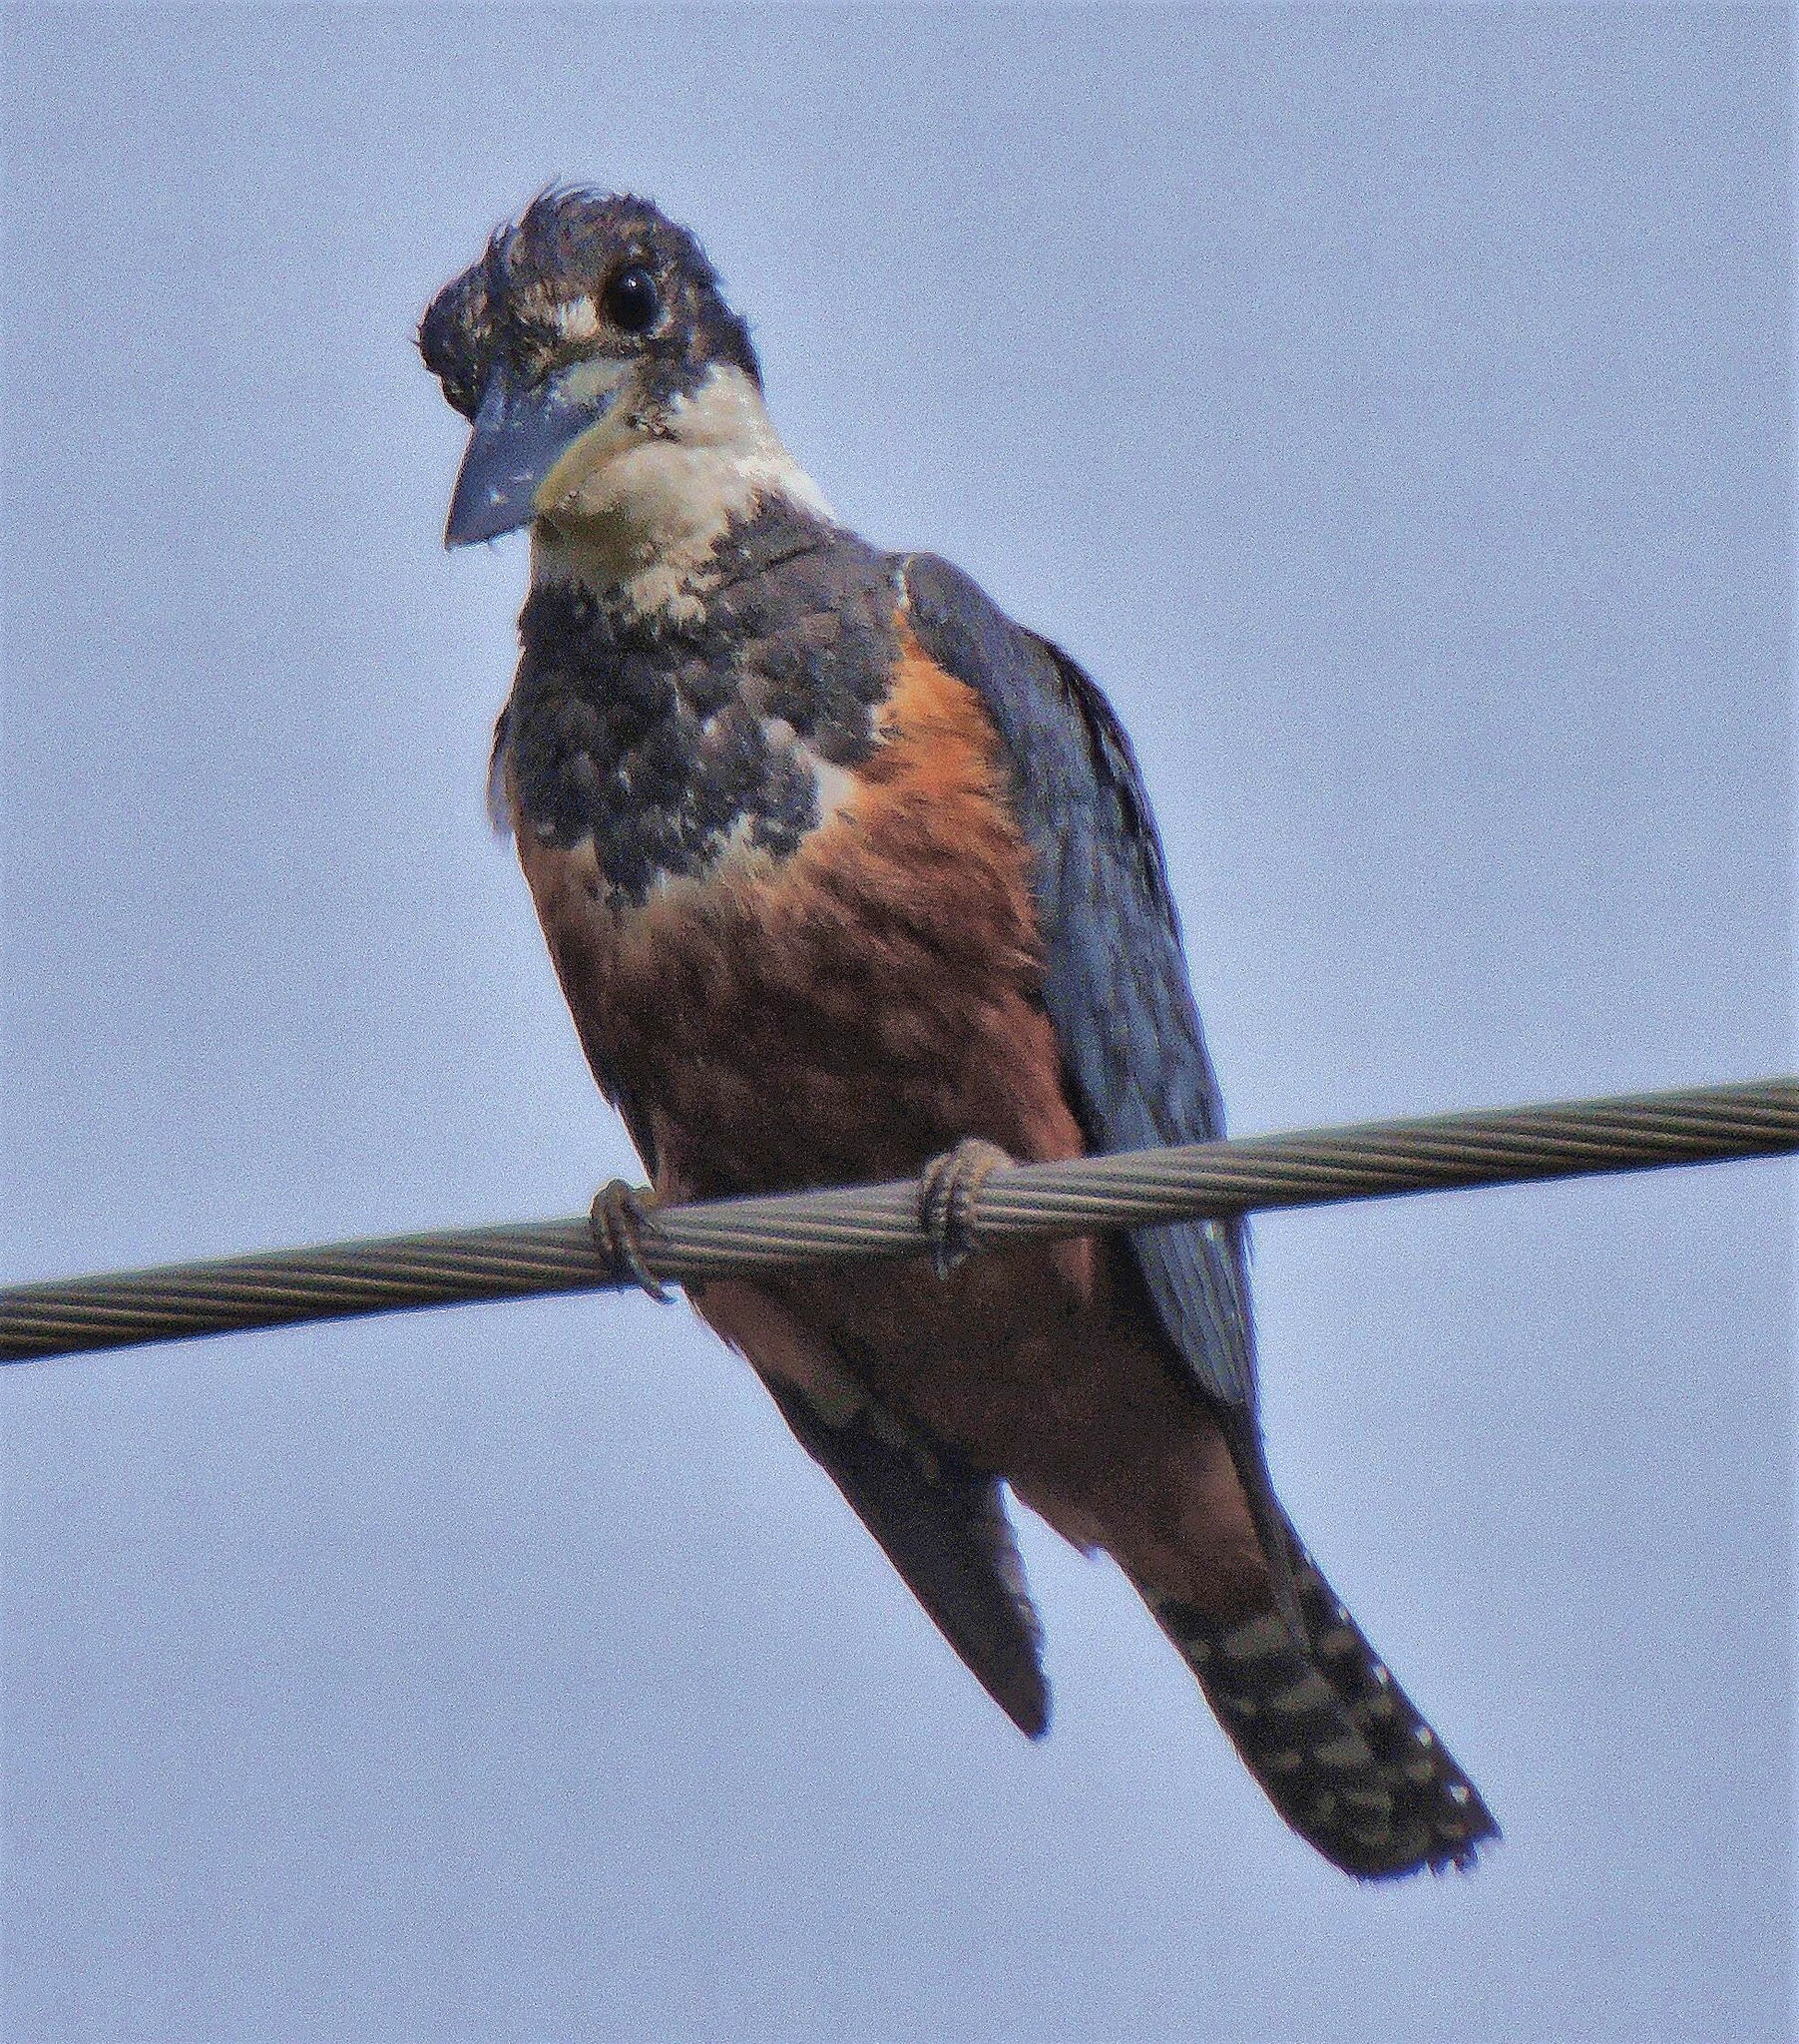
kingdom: Animalia
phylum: Chordata
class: Aves
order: Coraciiformes
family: Alcedinidae
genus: Megaceryle
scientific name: Megaceryle torquata
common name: Ringed kingfisher
